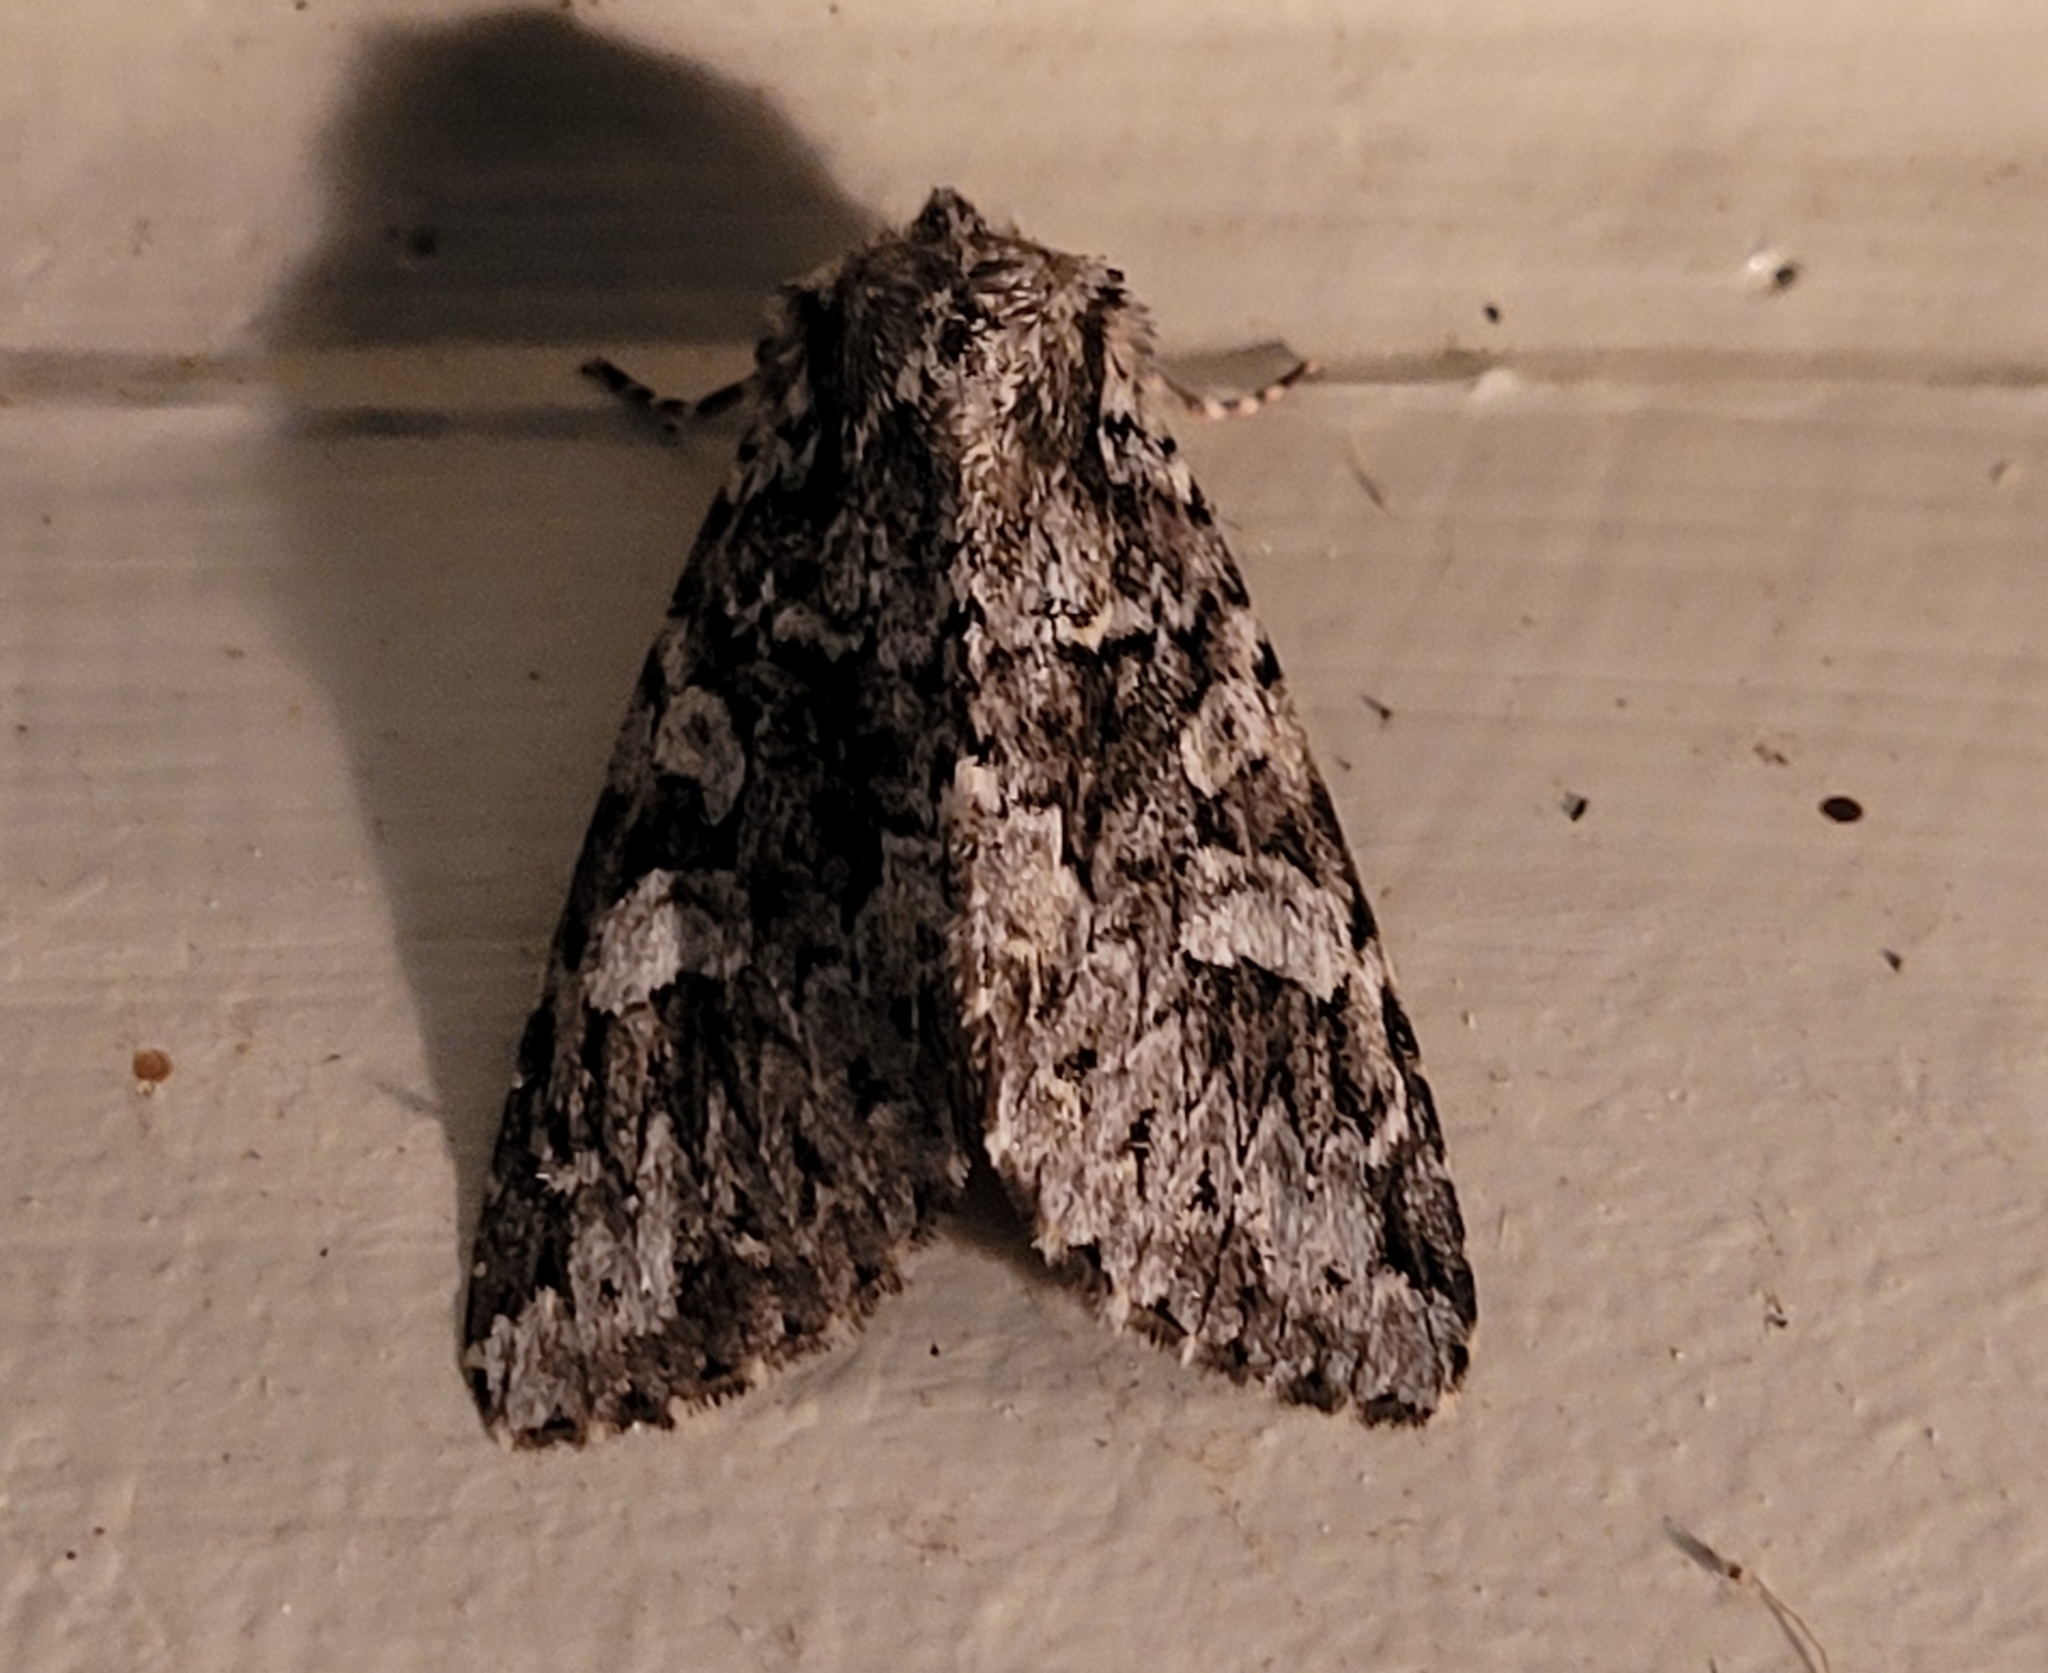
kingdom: Animalia
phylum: Arthropoda
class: Insecta
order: Lepidoptera
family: Noctuidae
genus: Platypolia
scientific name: Platypolia anceps
